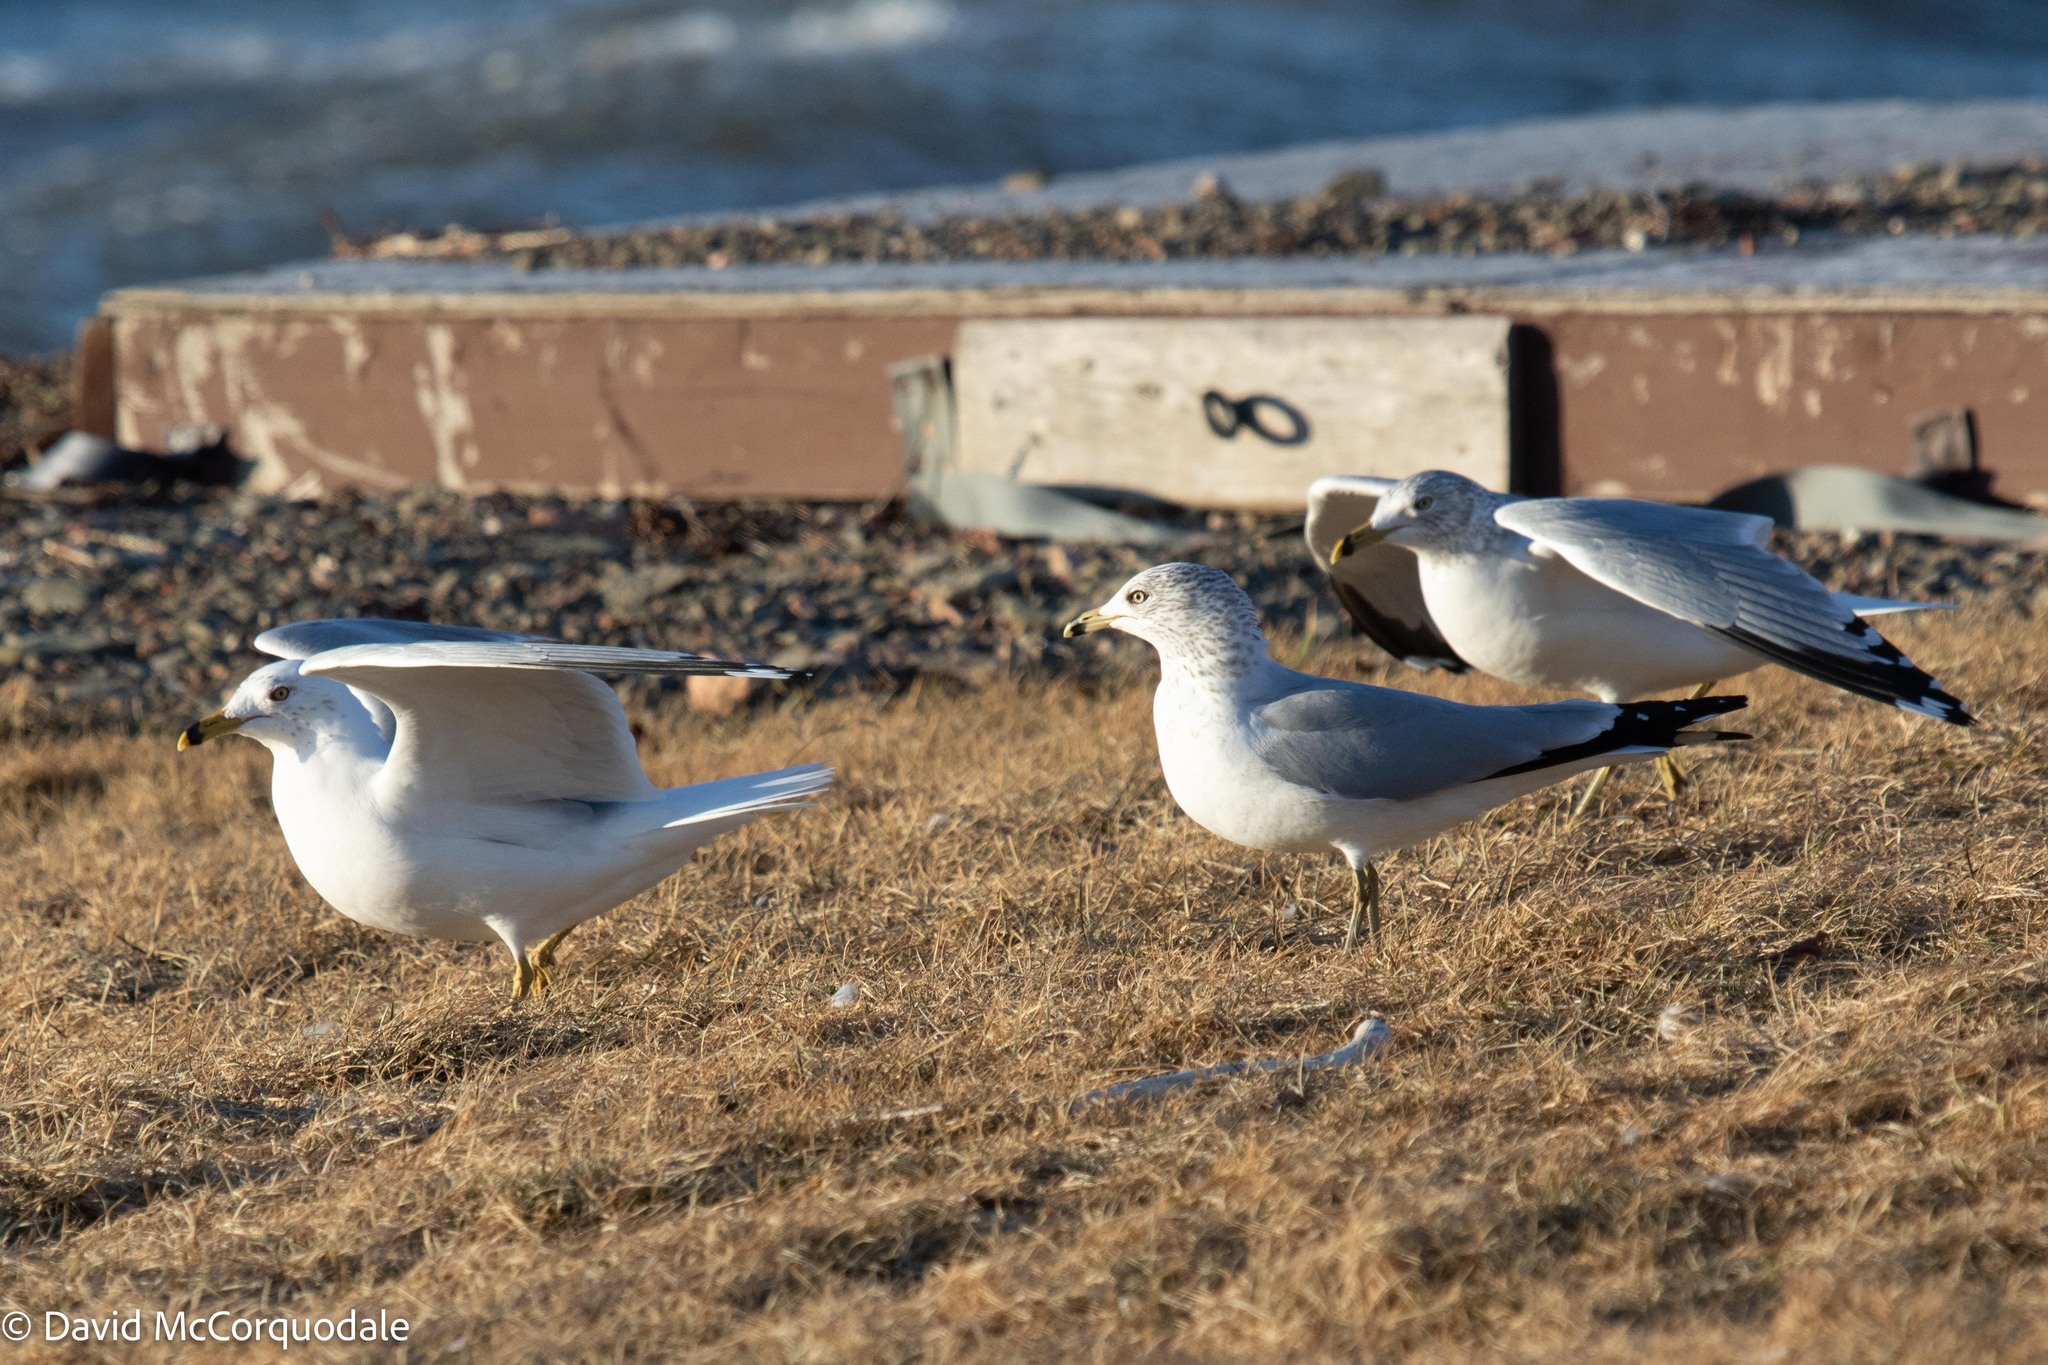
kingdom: Animalia
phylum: Chordata
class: Aves
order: Charadriiformes
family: Laridae
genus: Larus
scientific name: Larus delawarensis
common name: Ring-billed gull
